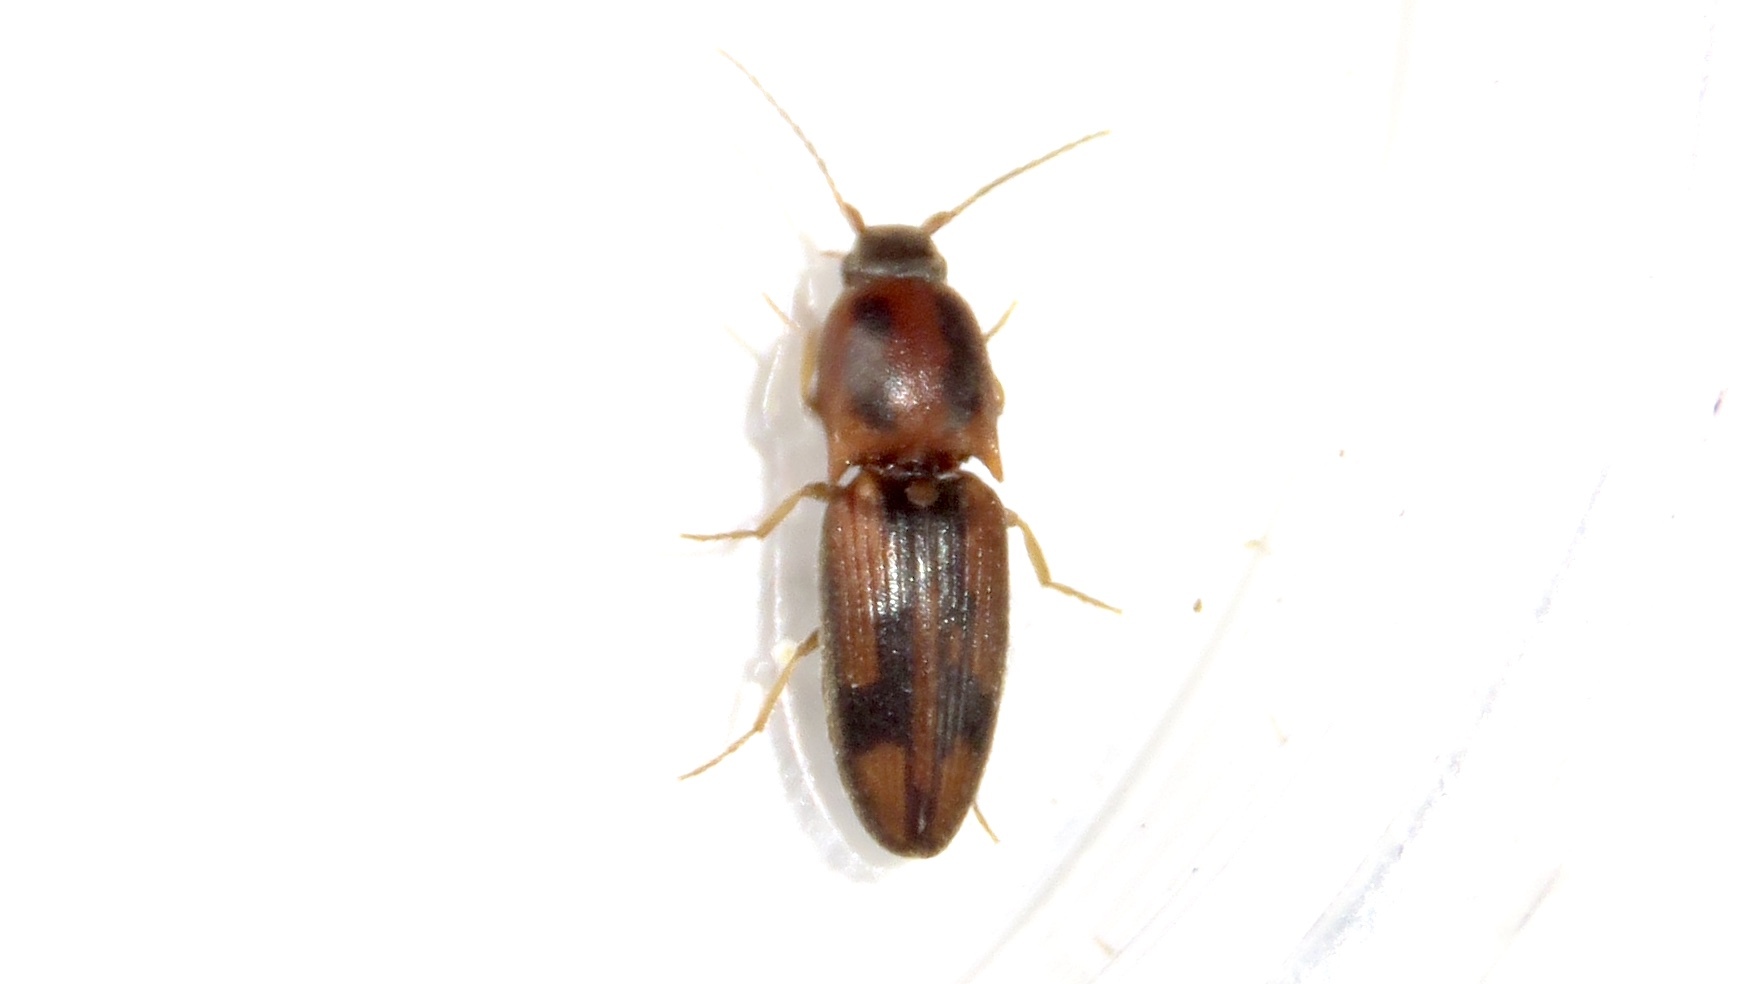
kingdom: Animalia
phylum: Arthropoda
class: Insecta
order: Coleoptera
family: Elateridae
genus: Monocrepidius
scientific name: Monocrepidius
